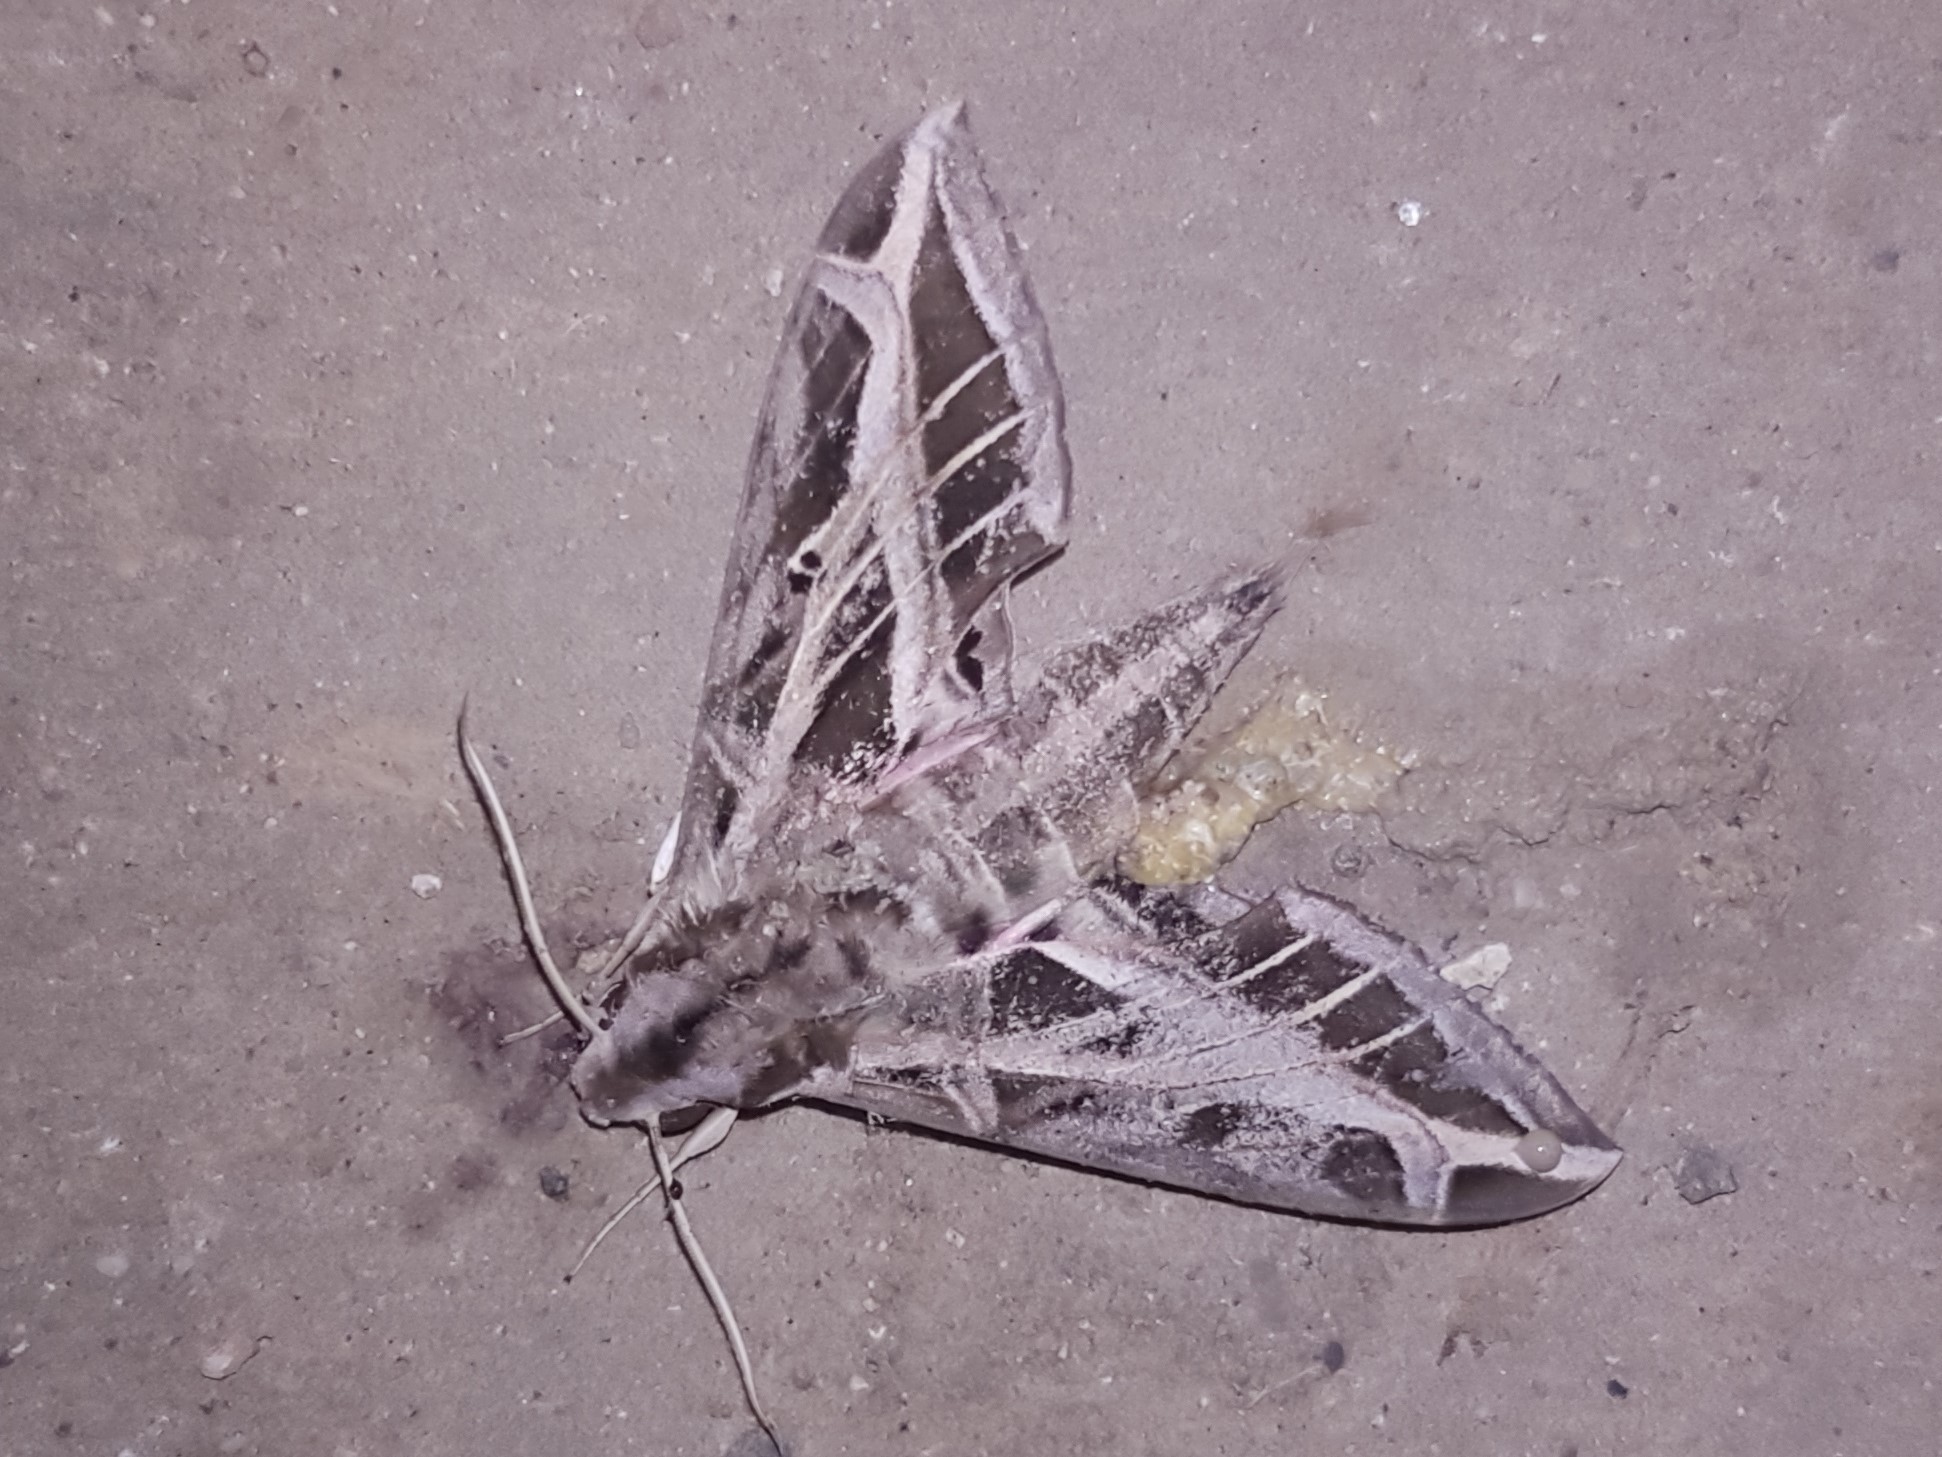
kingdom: Animalia
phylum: Arthropoda
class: Insecta
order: Lepidoptera
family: Sphingidae
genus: Eumorpha
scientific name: Eumorpha vitis
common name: Vine sphinx
